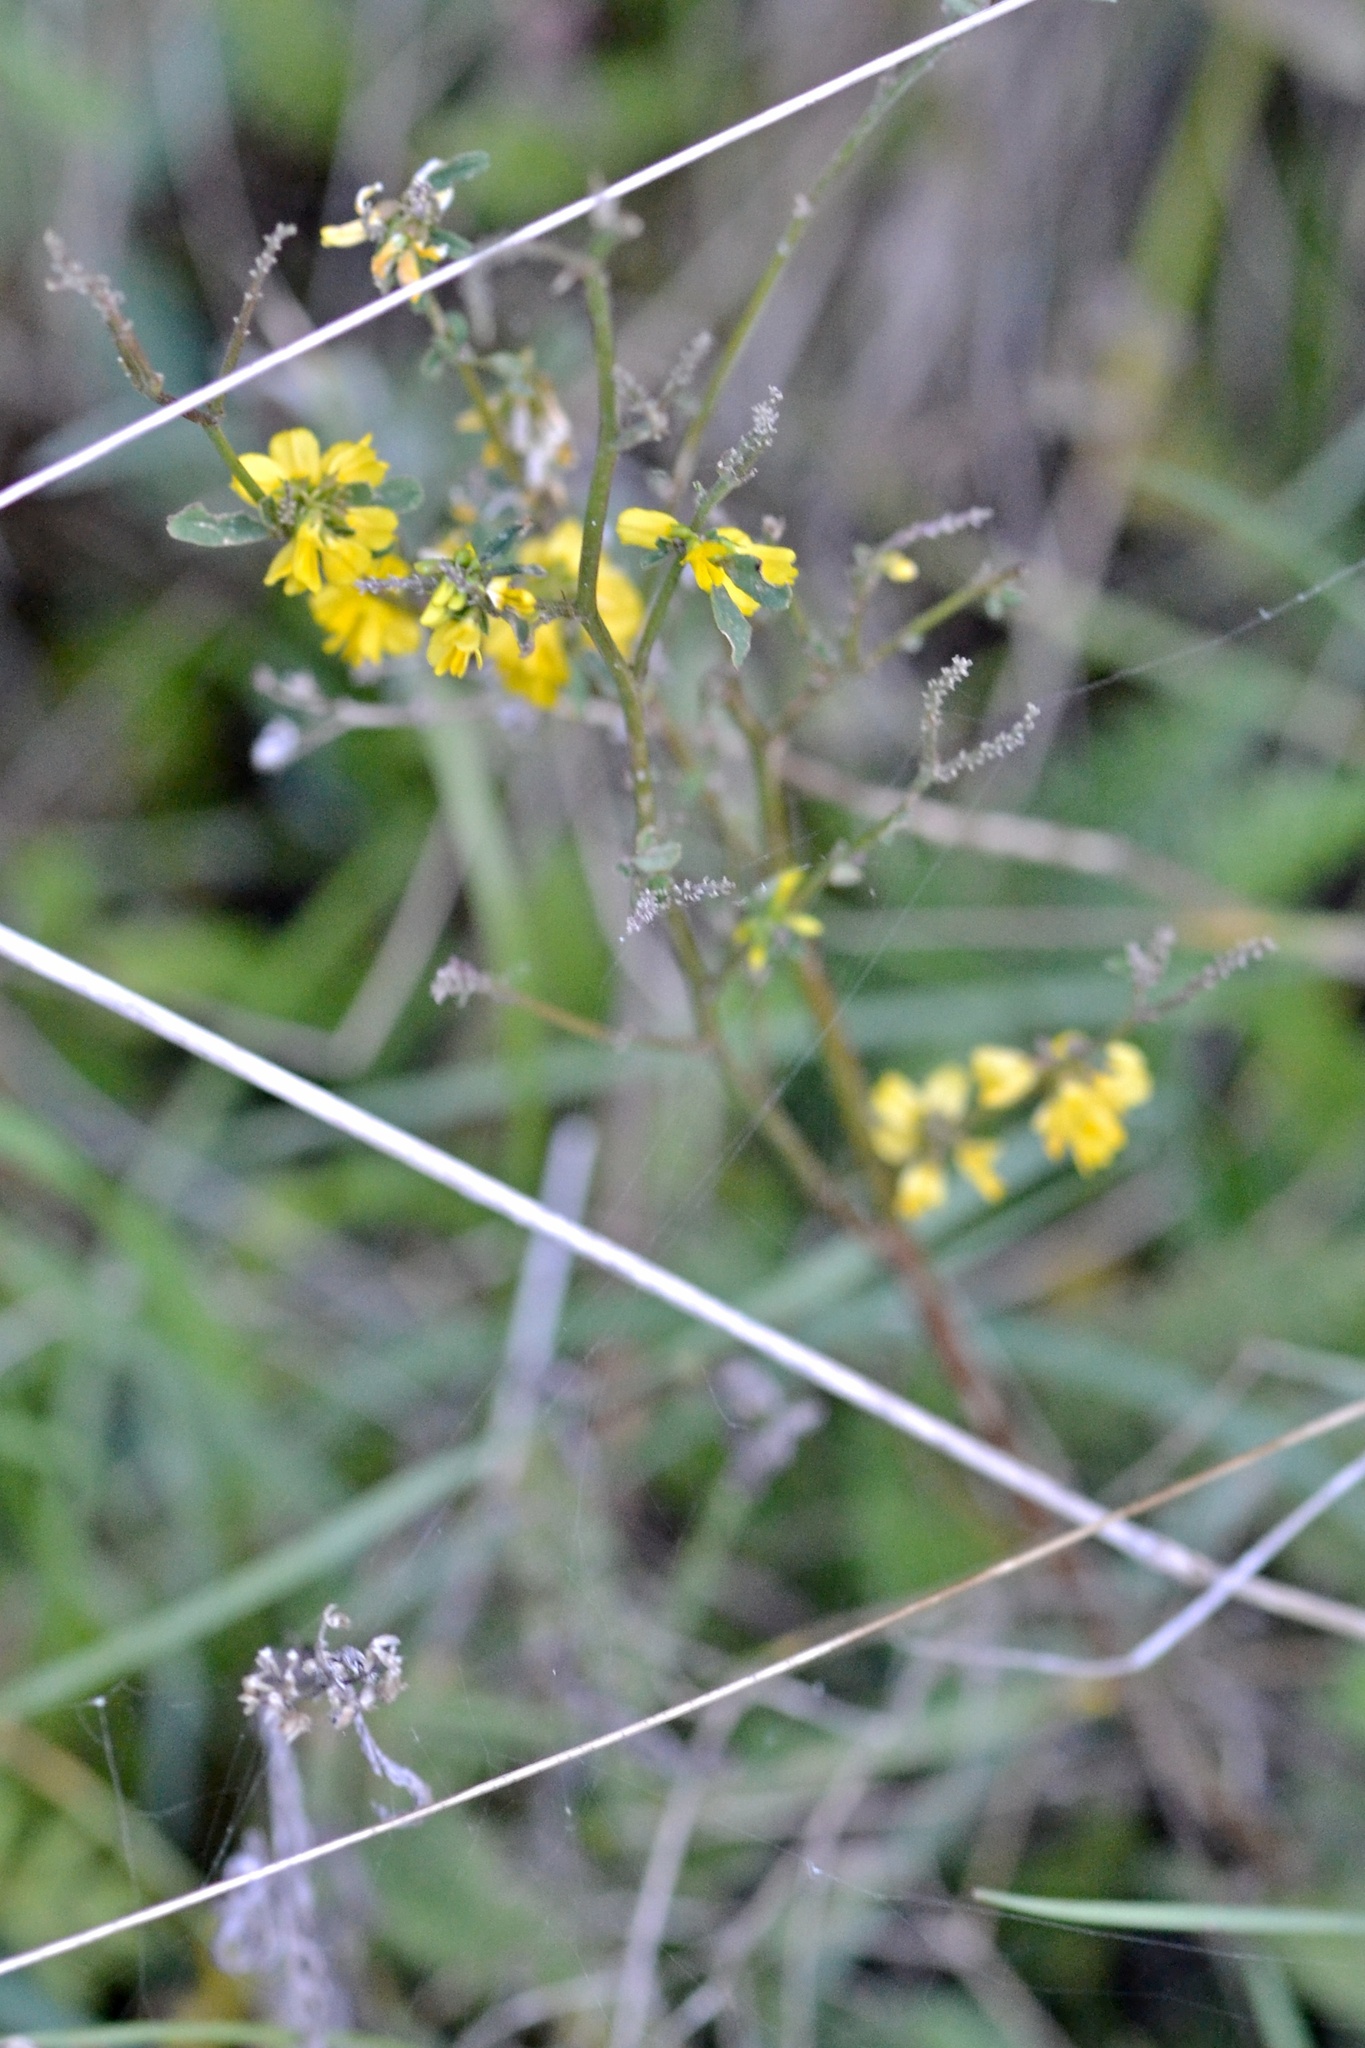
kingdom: Plantae
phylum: Tracheophyta
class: Magnoliopsida
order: Fabales
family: Fabaceae
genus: Melilotus
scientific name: Melilotus officinalis
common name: Sweetclover
